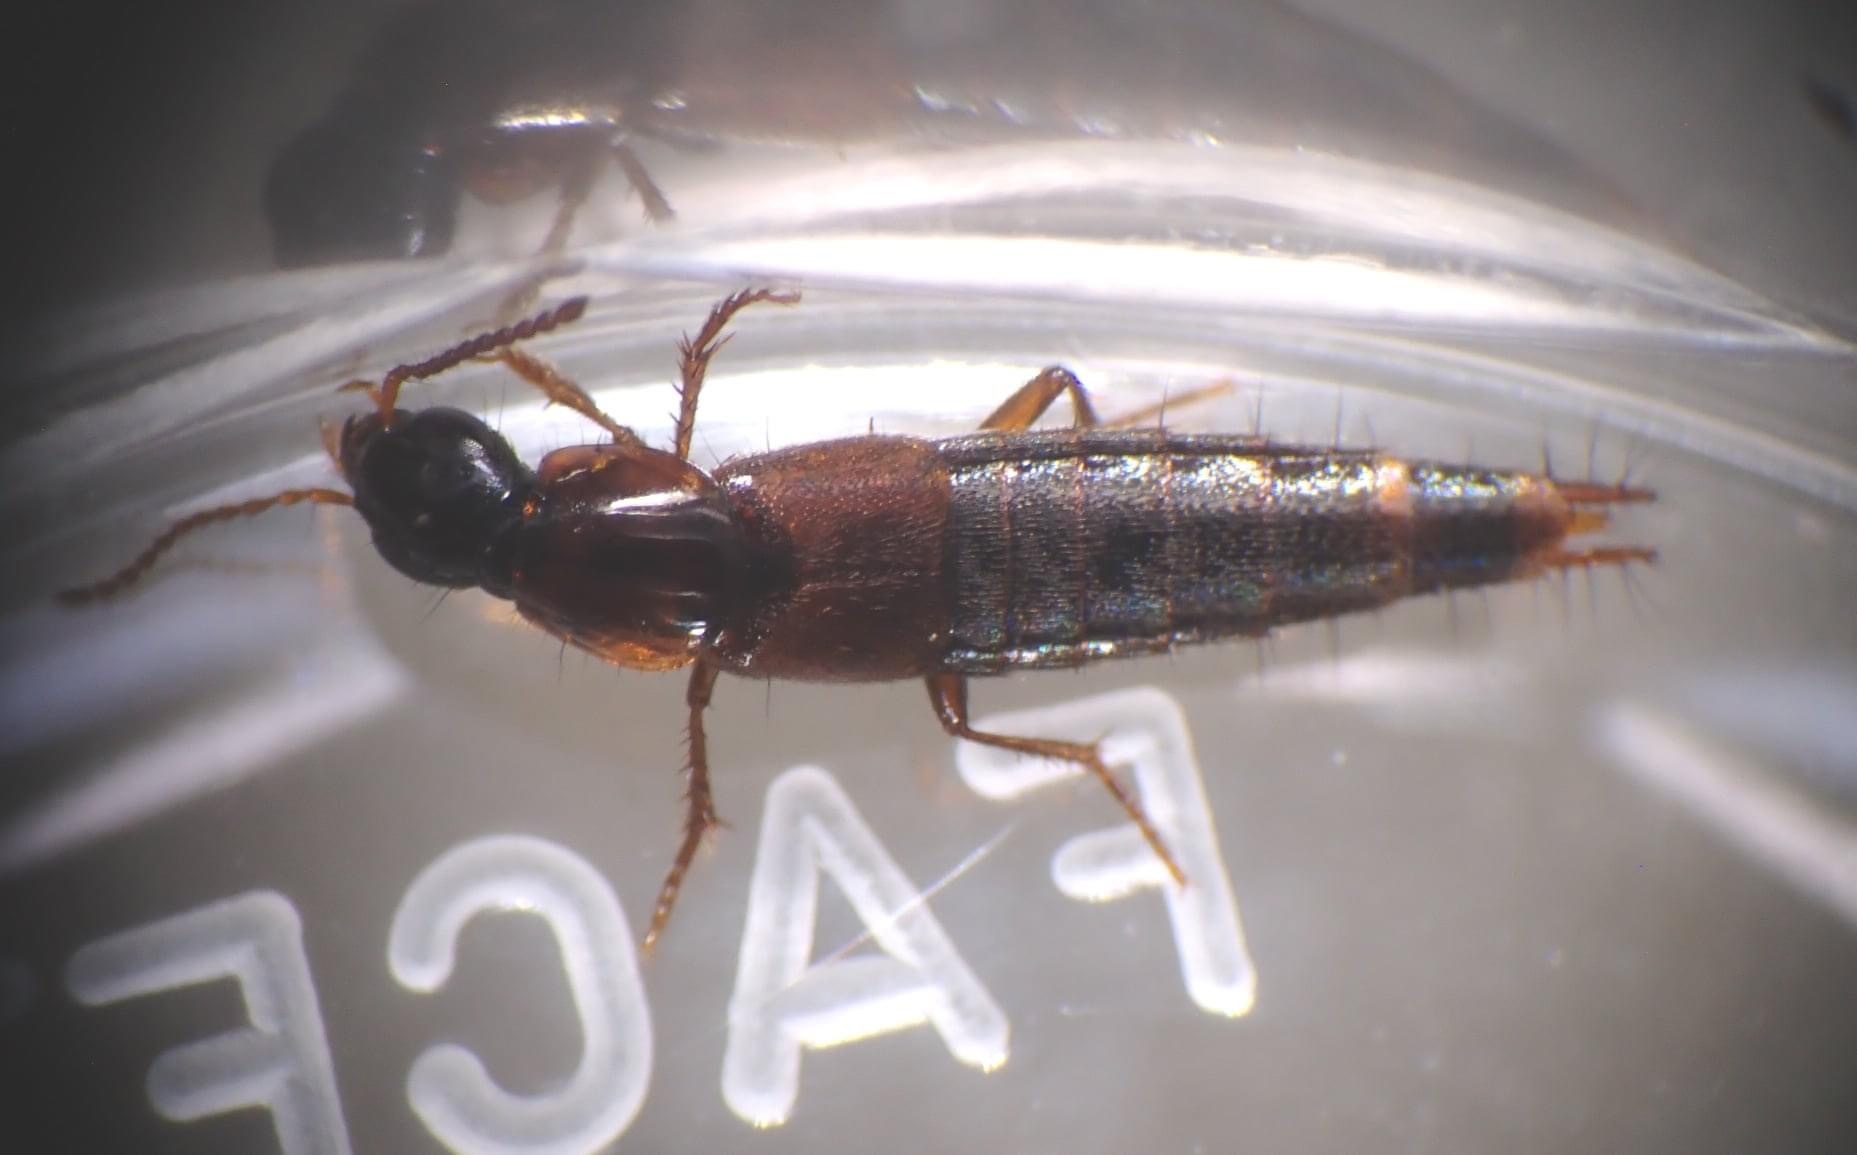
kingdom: Animalia
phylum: Arthropoda
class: Insecta
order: Coleoptera
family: Staphylinidae
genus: Quedius
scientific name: Quedius nigriceps
